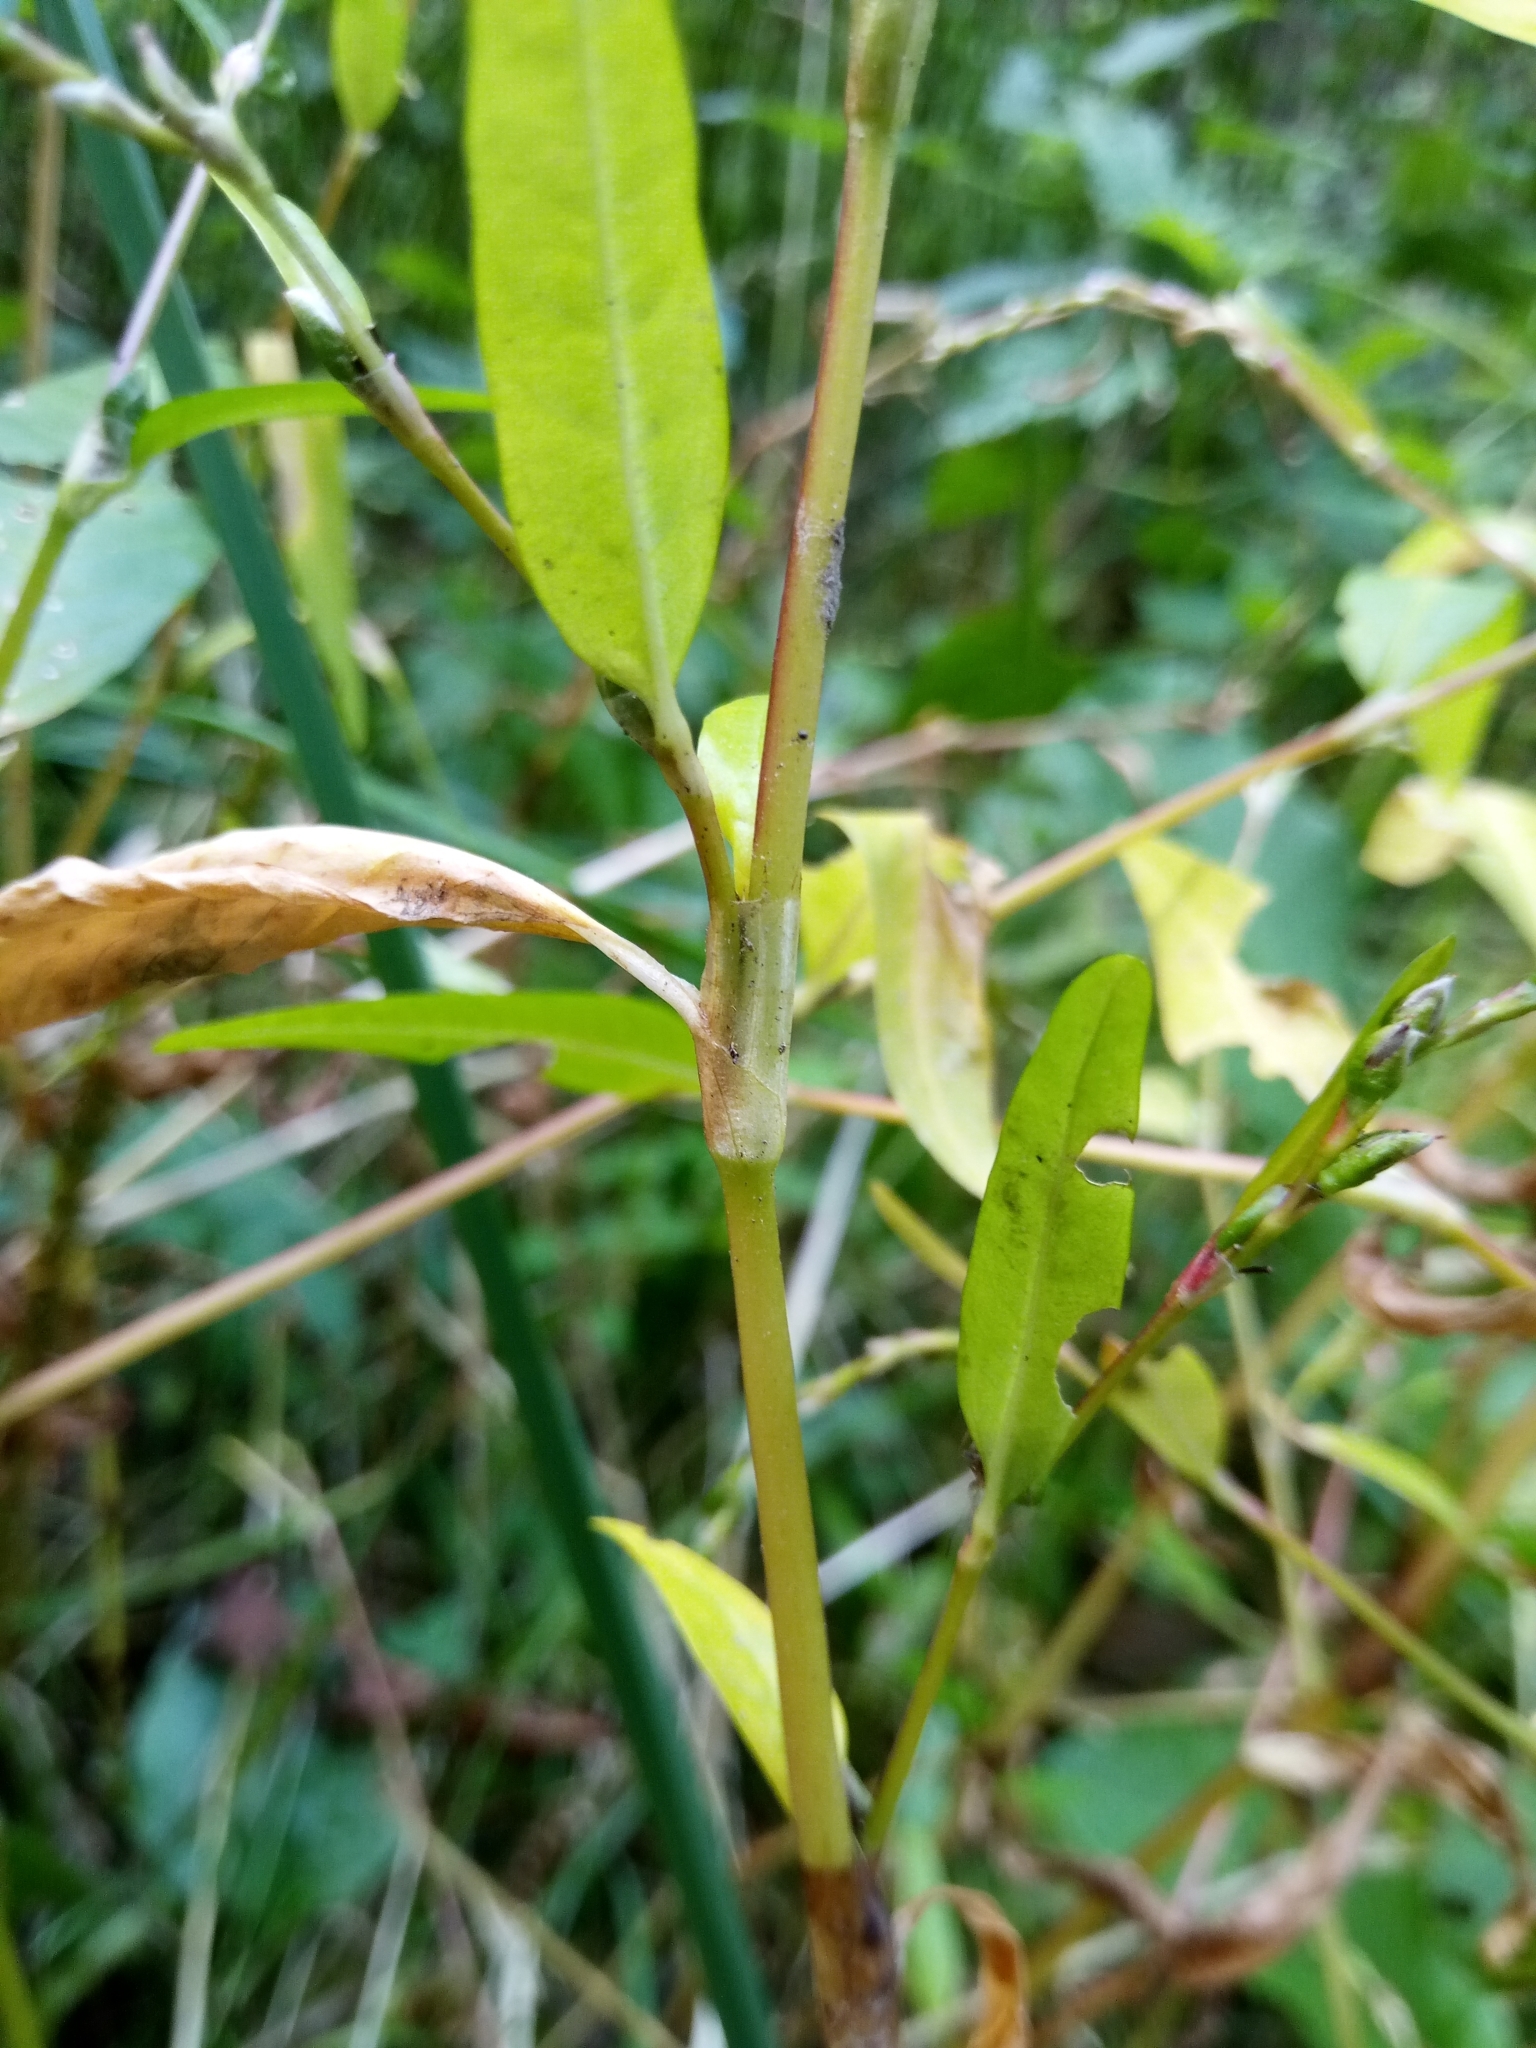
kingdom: Plantae
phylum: Tracheophyta
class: Magnoliopsida
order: Caryophyllales
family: Polygonaceae
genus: Persicaria
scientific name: Persicaria hydropiper
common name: Water-pepper
